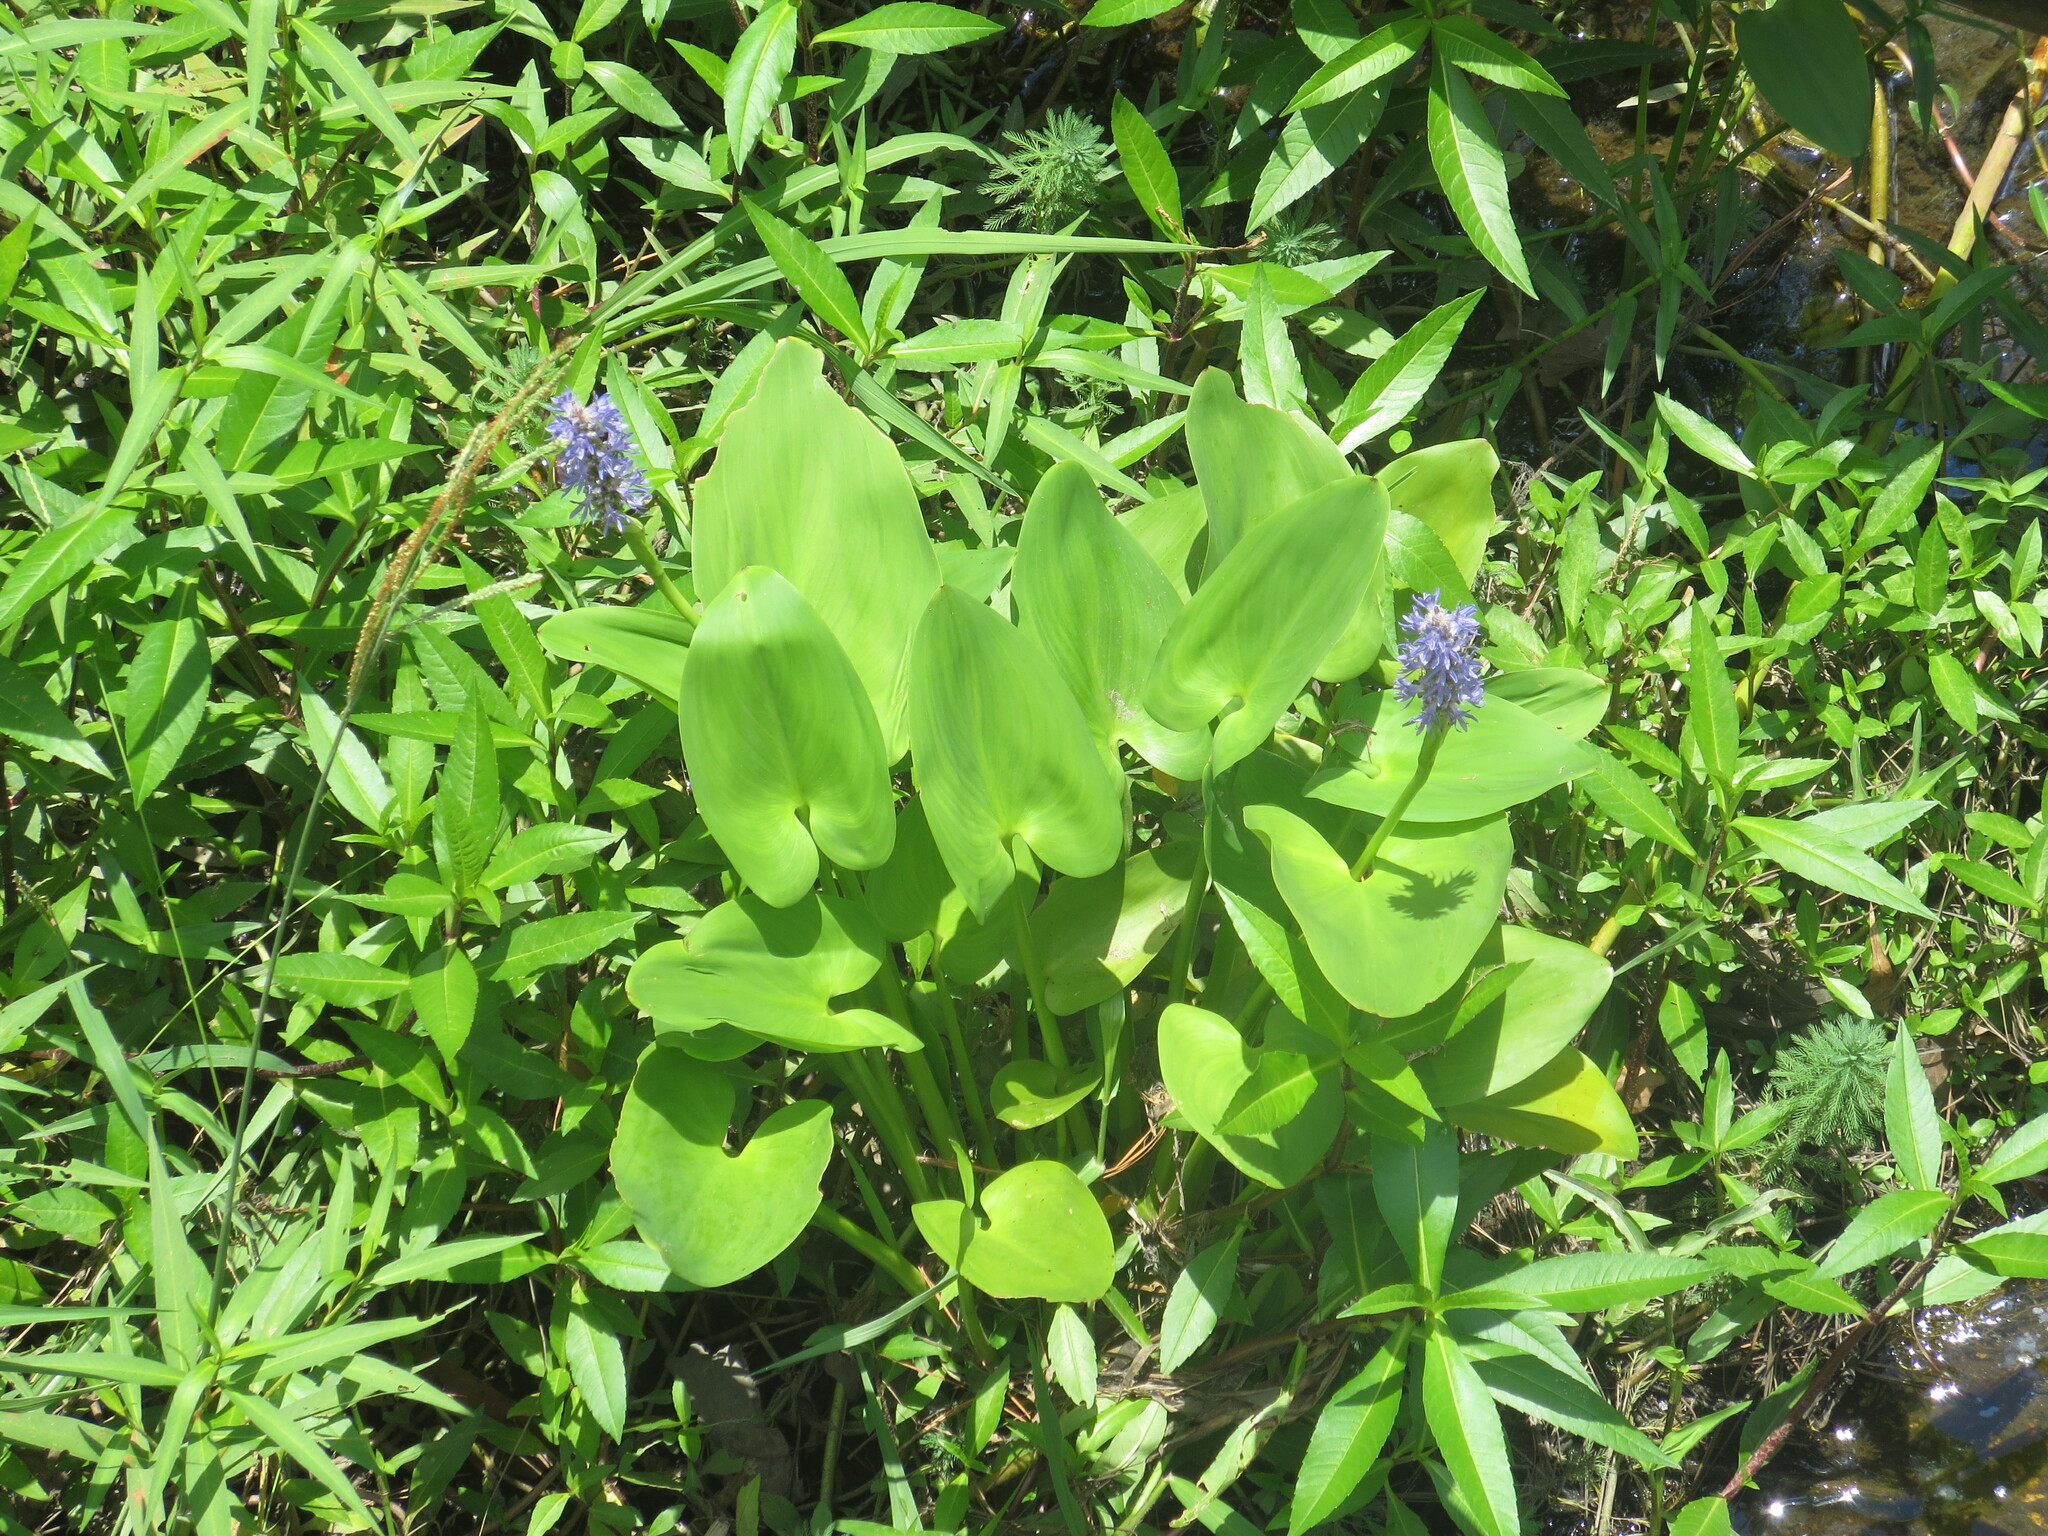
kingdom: Plantae
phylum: Tracheophyta
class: Liliopsida
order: Commelinales
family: Pontederiaceae
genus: Pontederia
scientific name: Pontederia cordata
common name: Pickerelweed
